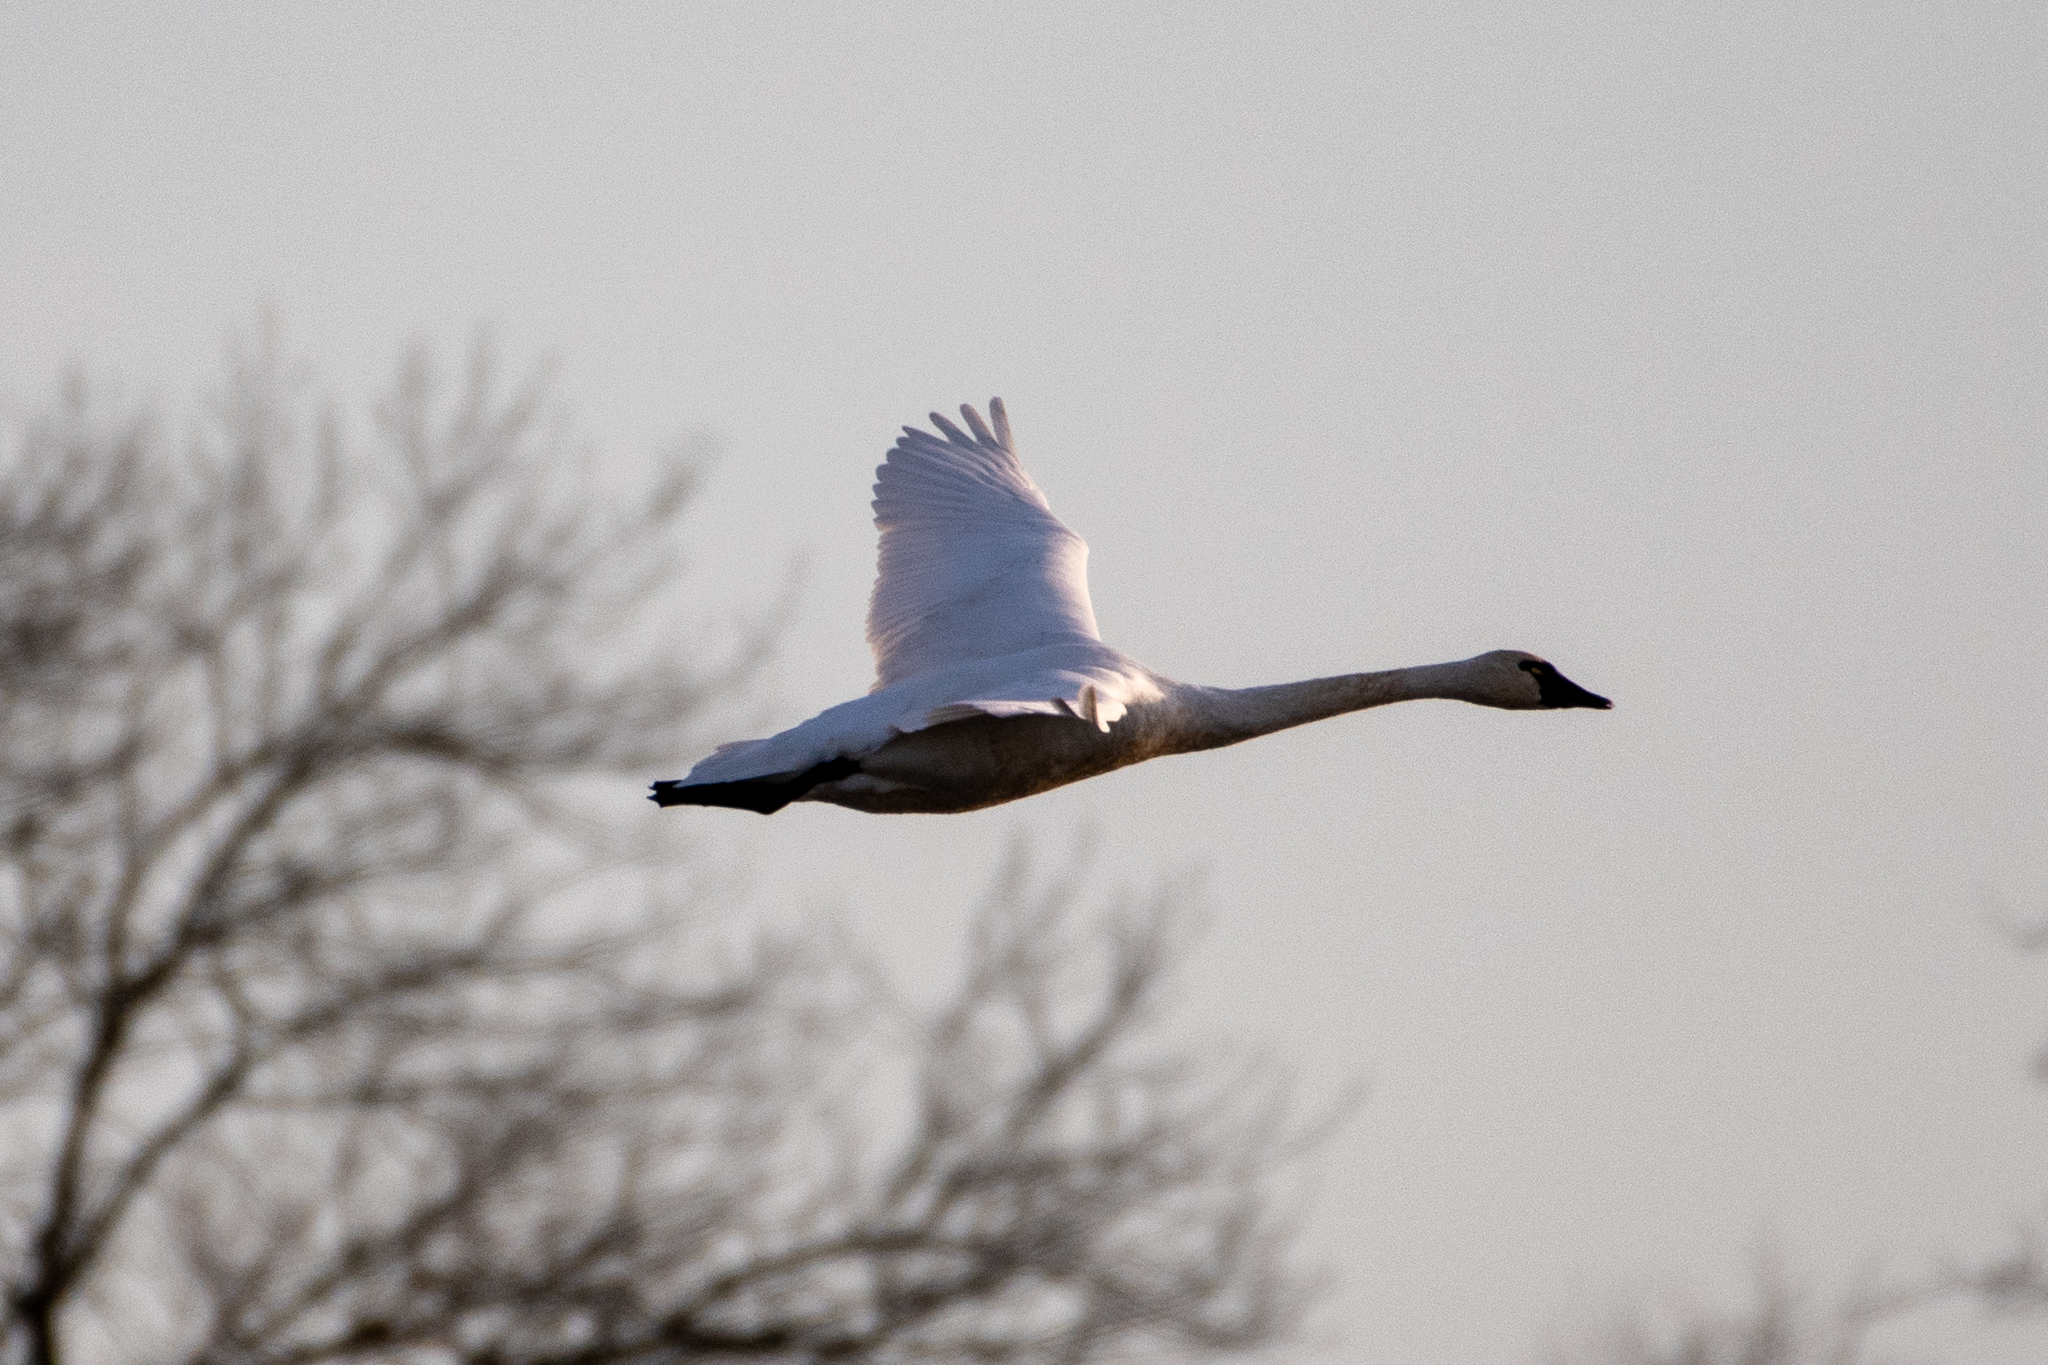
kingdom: Animalia
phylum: Chordata
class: Aves
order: Anseriformes
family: Anatidae
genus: Cygnus
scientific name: Cygnus columbianus
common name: Tundra swan
